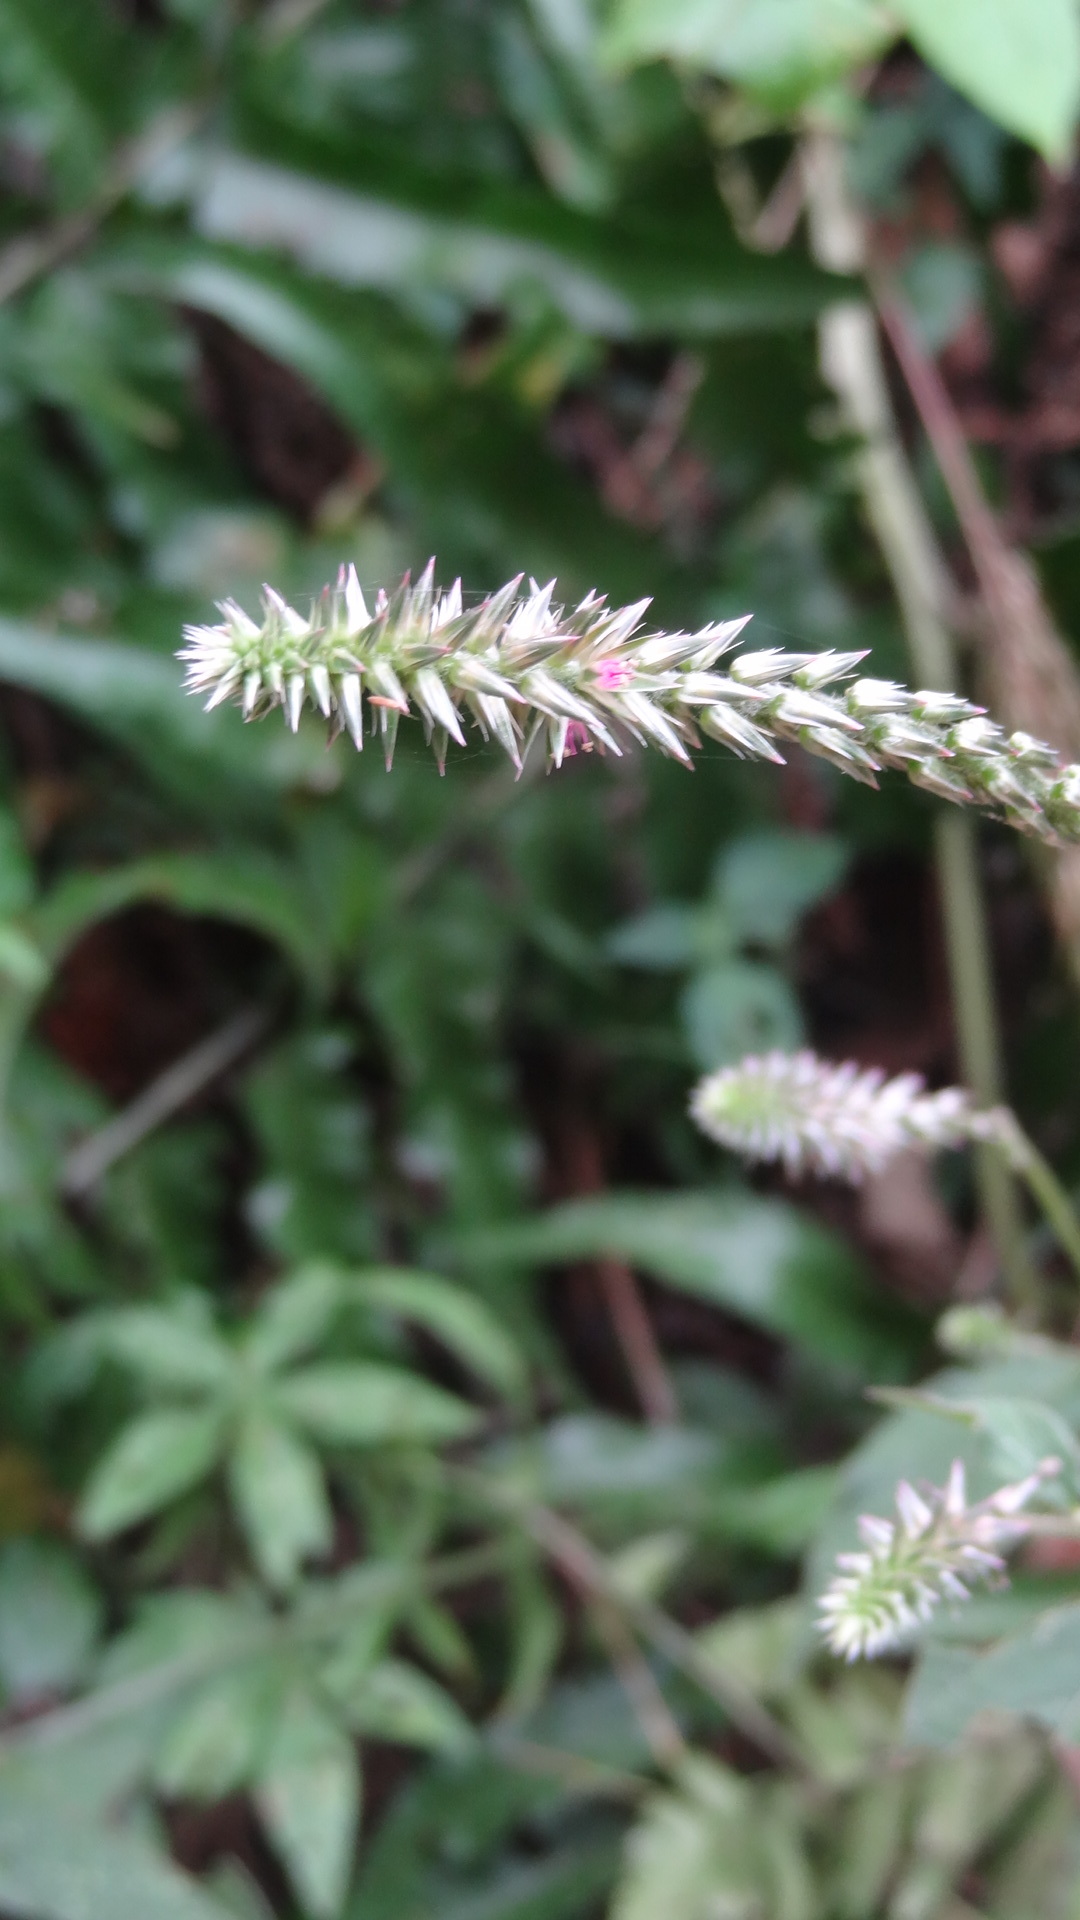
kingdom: Plantae
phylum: Tracheophyta
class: Magnoliopsida
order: Caryophyllales
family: Amaranthaceae
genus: Achyranthes
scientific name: Achyranthes aspera
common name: Devil's horsewhip
